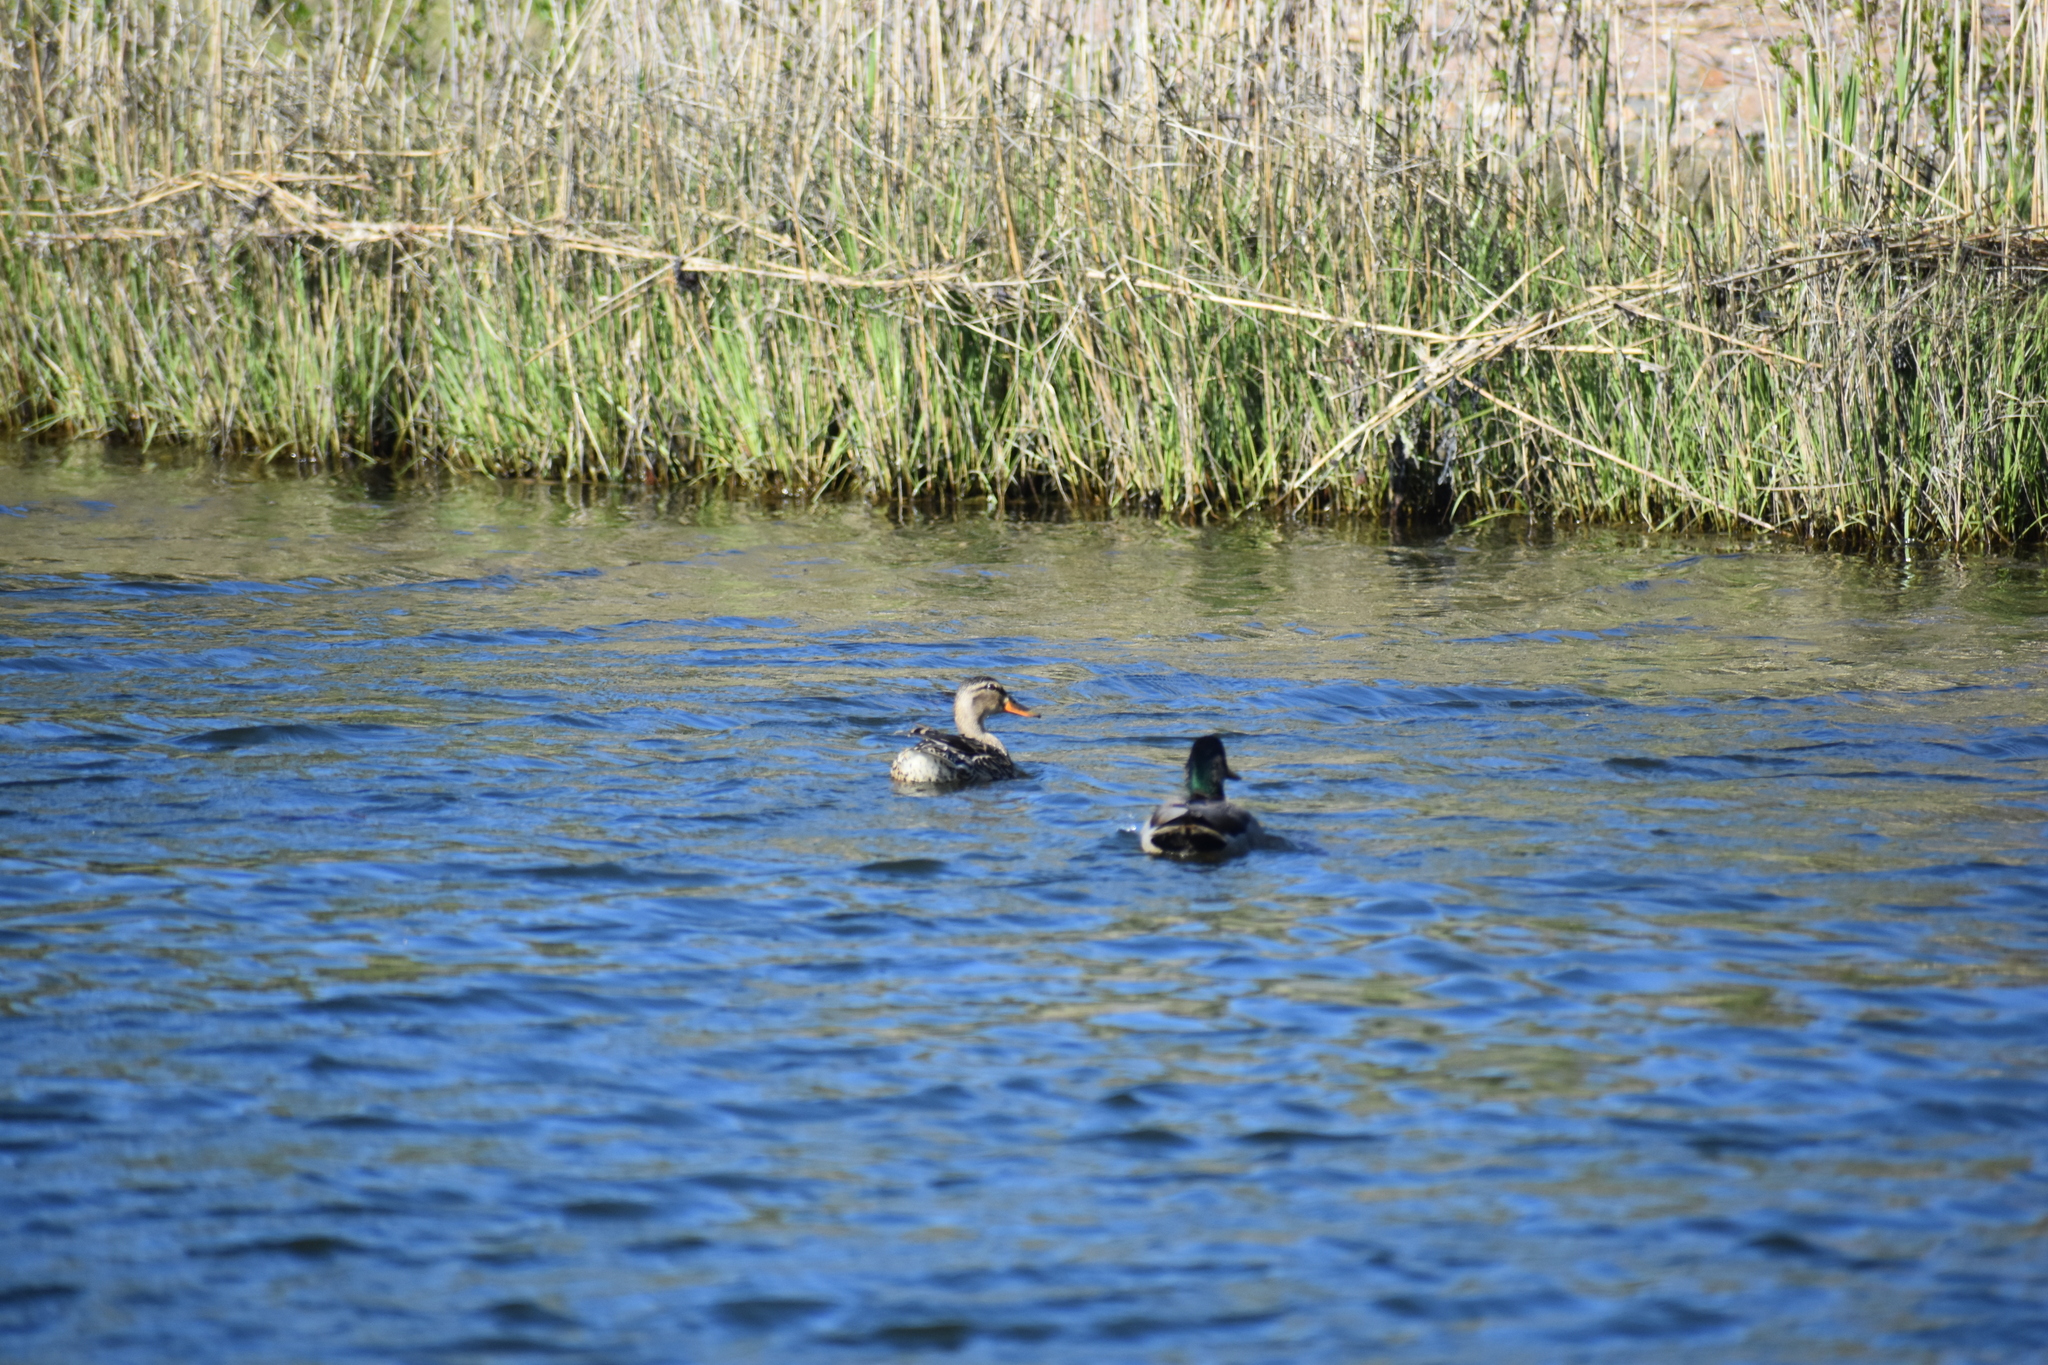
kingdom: Animalia
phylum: Chordata
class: Aves
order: Anseriformes
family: Anatidae
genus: Anas
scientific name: Anas platyrhynchos
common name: Mallard
